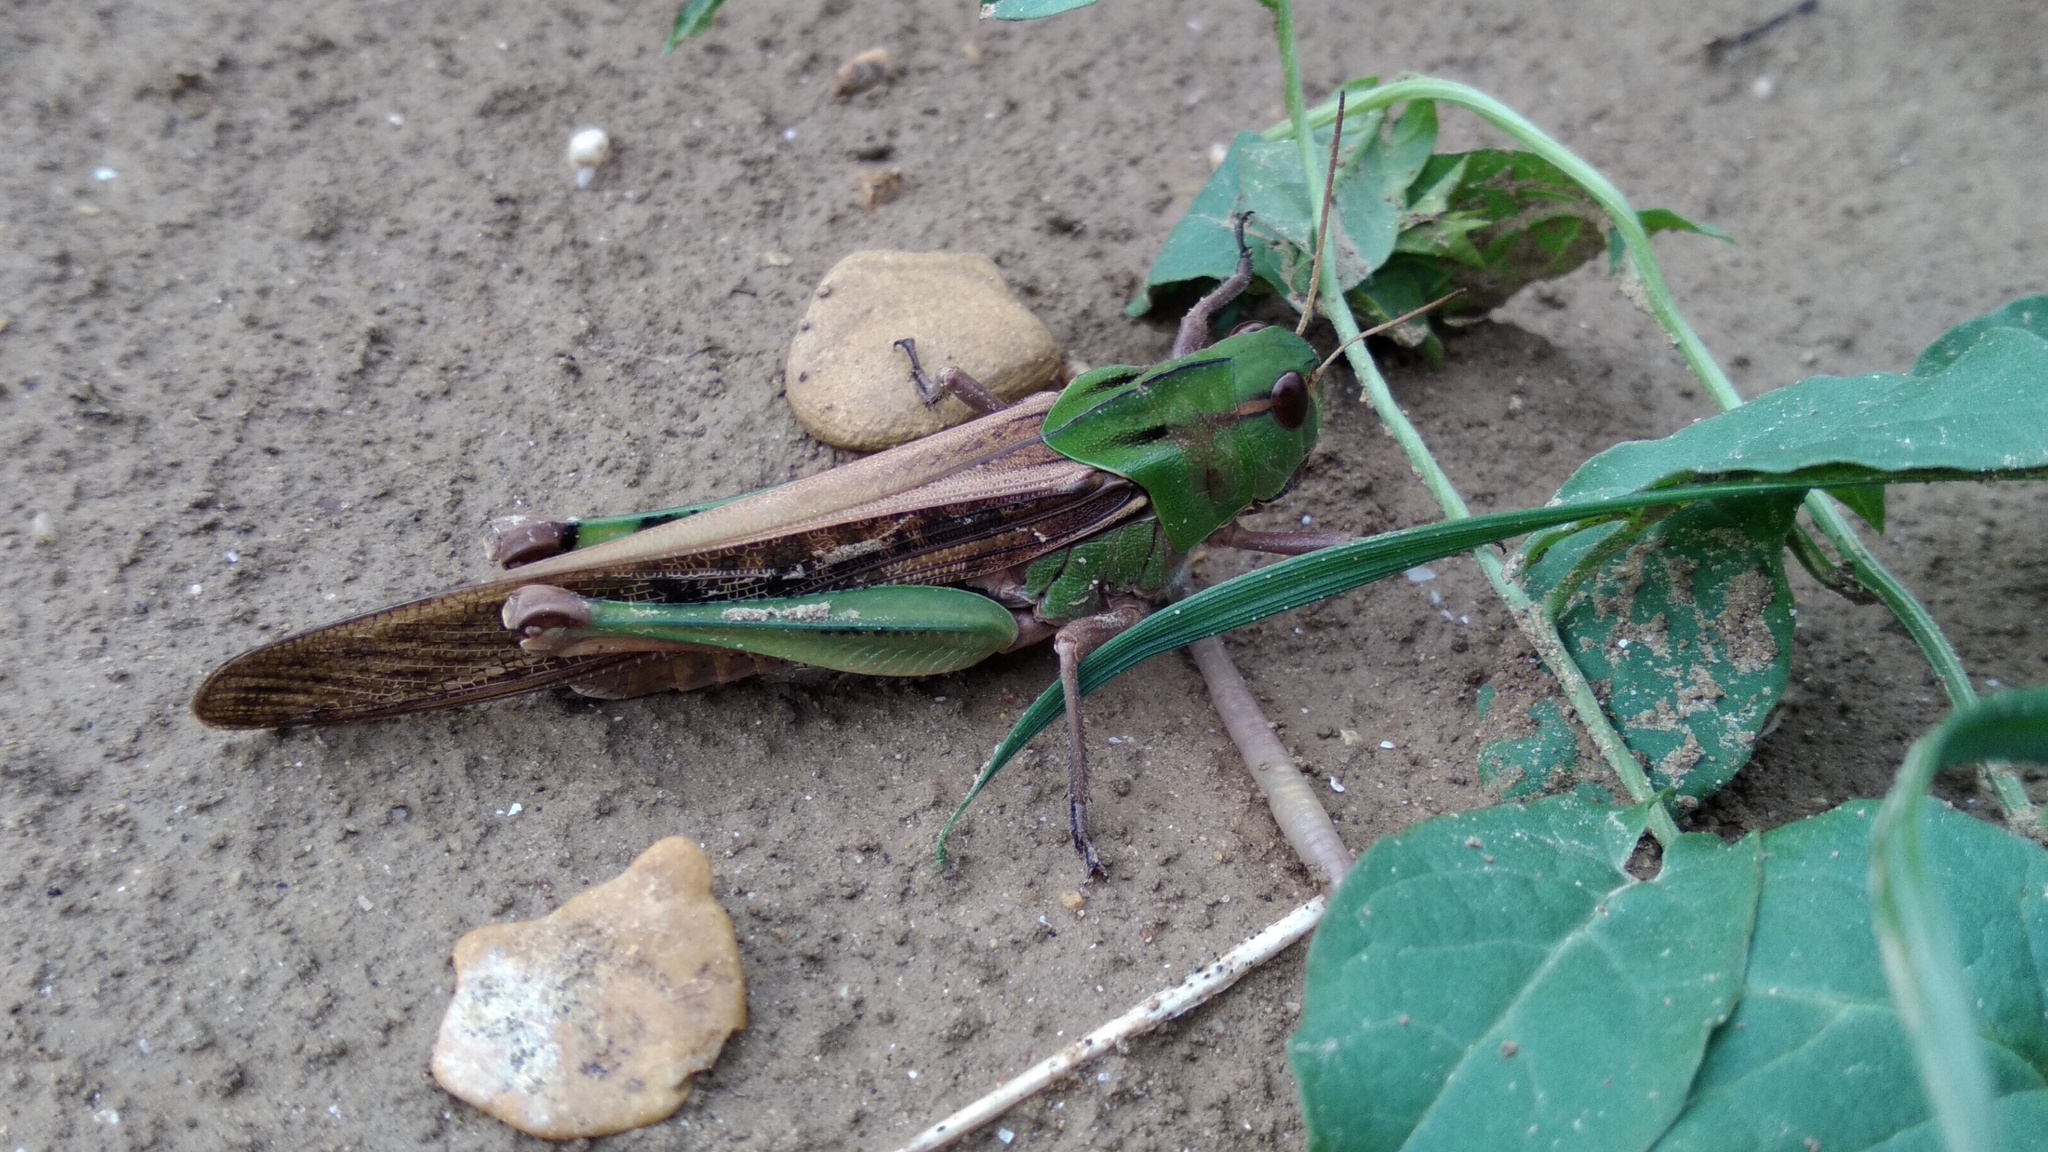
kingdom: Animalia
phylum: Arthropoda
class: Insecta
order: Orthoptera
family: Acrididae
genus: Locusta
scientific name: Locusta migratoria
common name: Migratory locust
